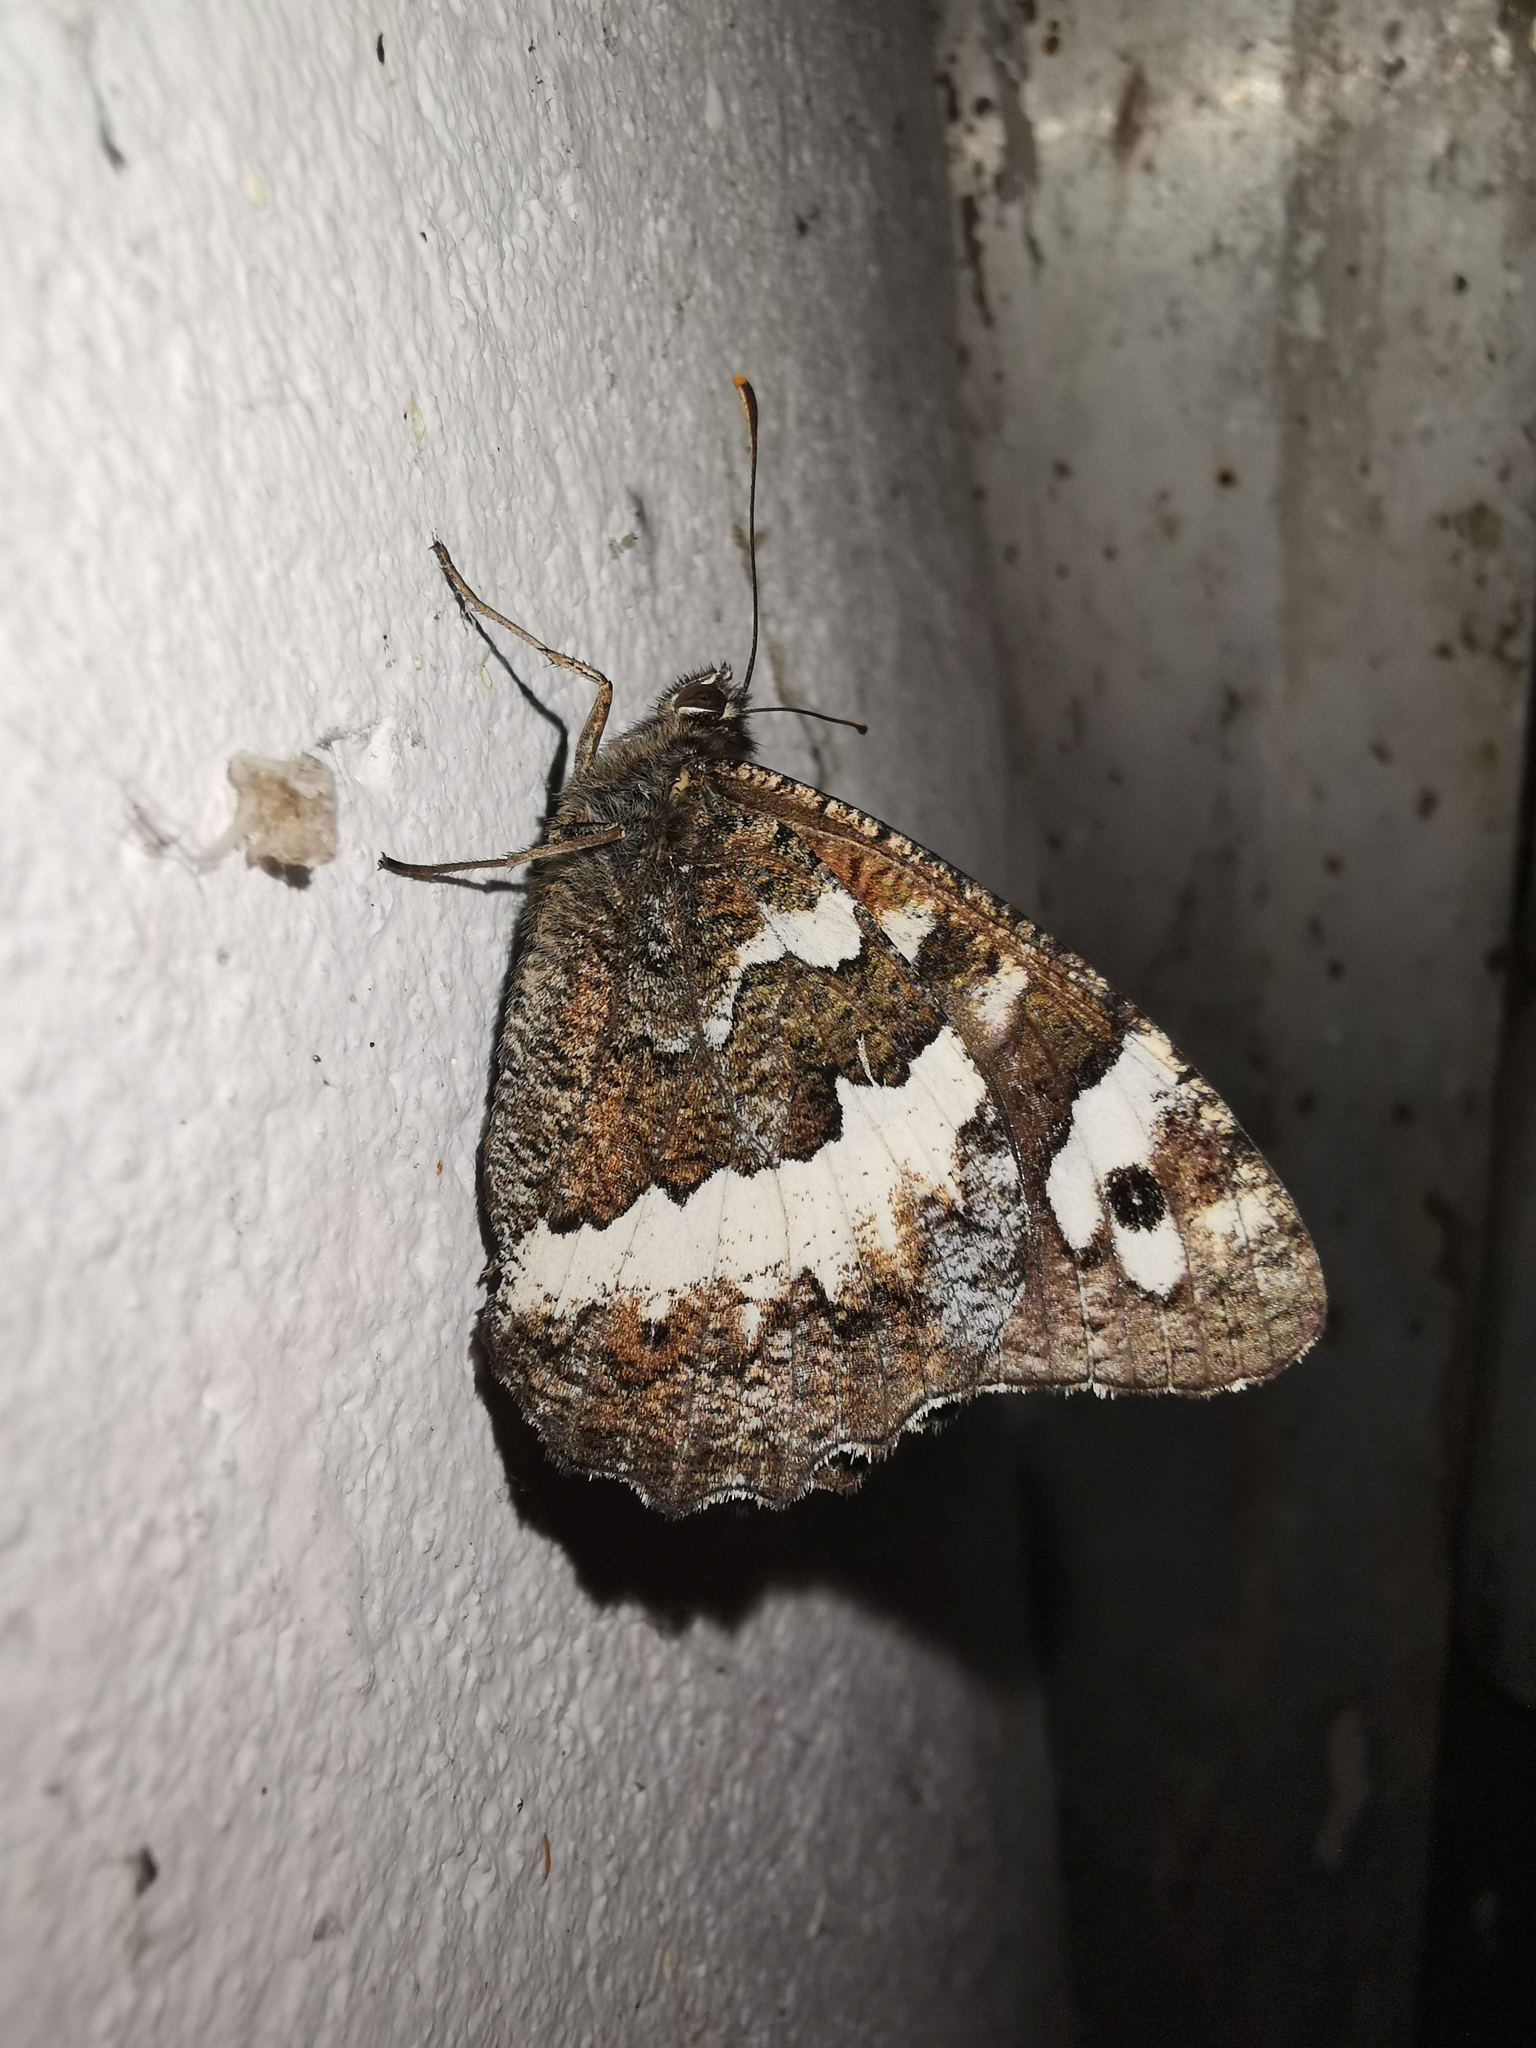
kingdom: Animalia
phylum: Arthropoda
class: Insecta
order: Lepidoptera
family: Lycaenidae
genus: Loweia
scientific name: Loweia tityrus
